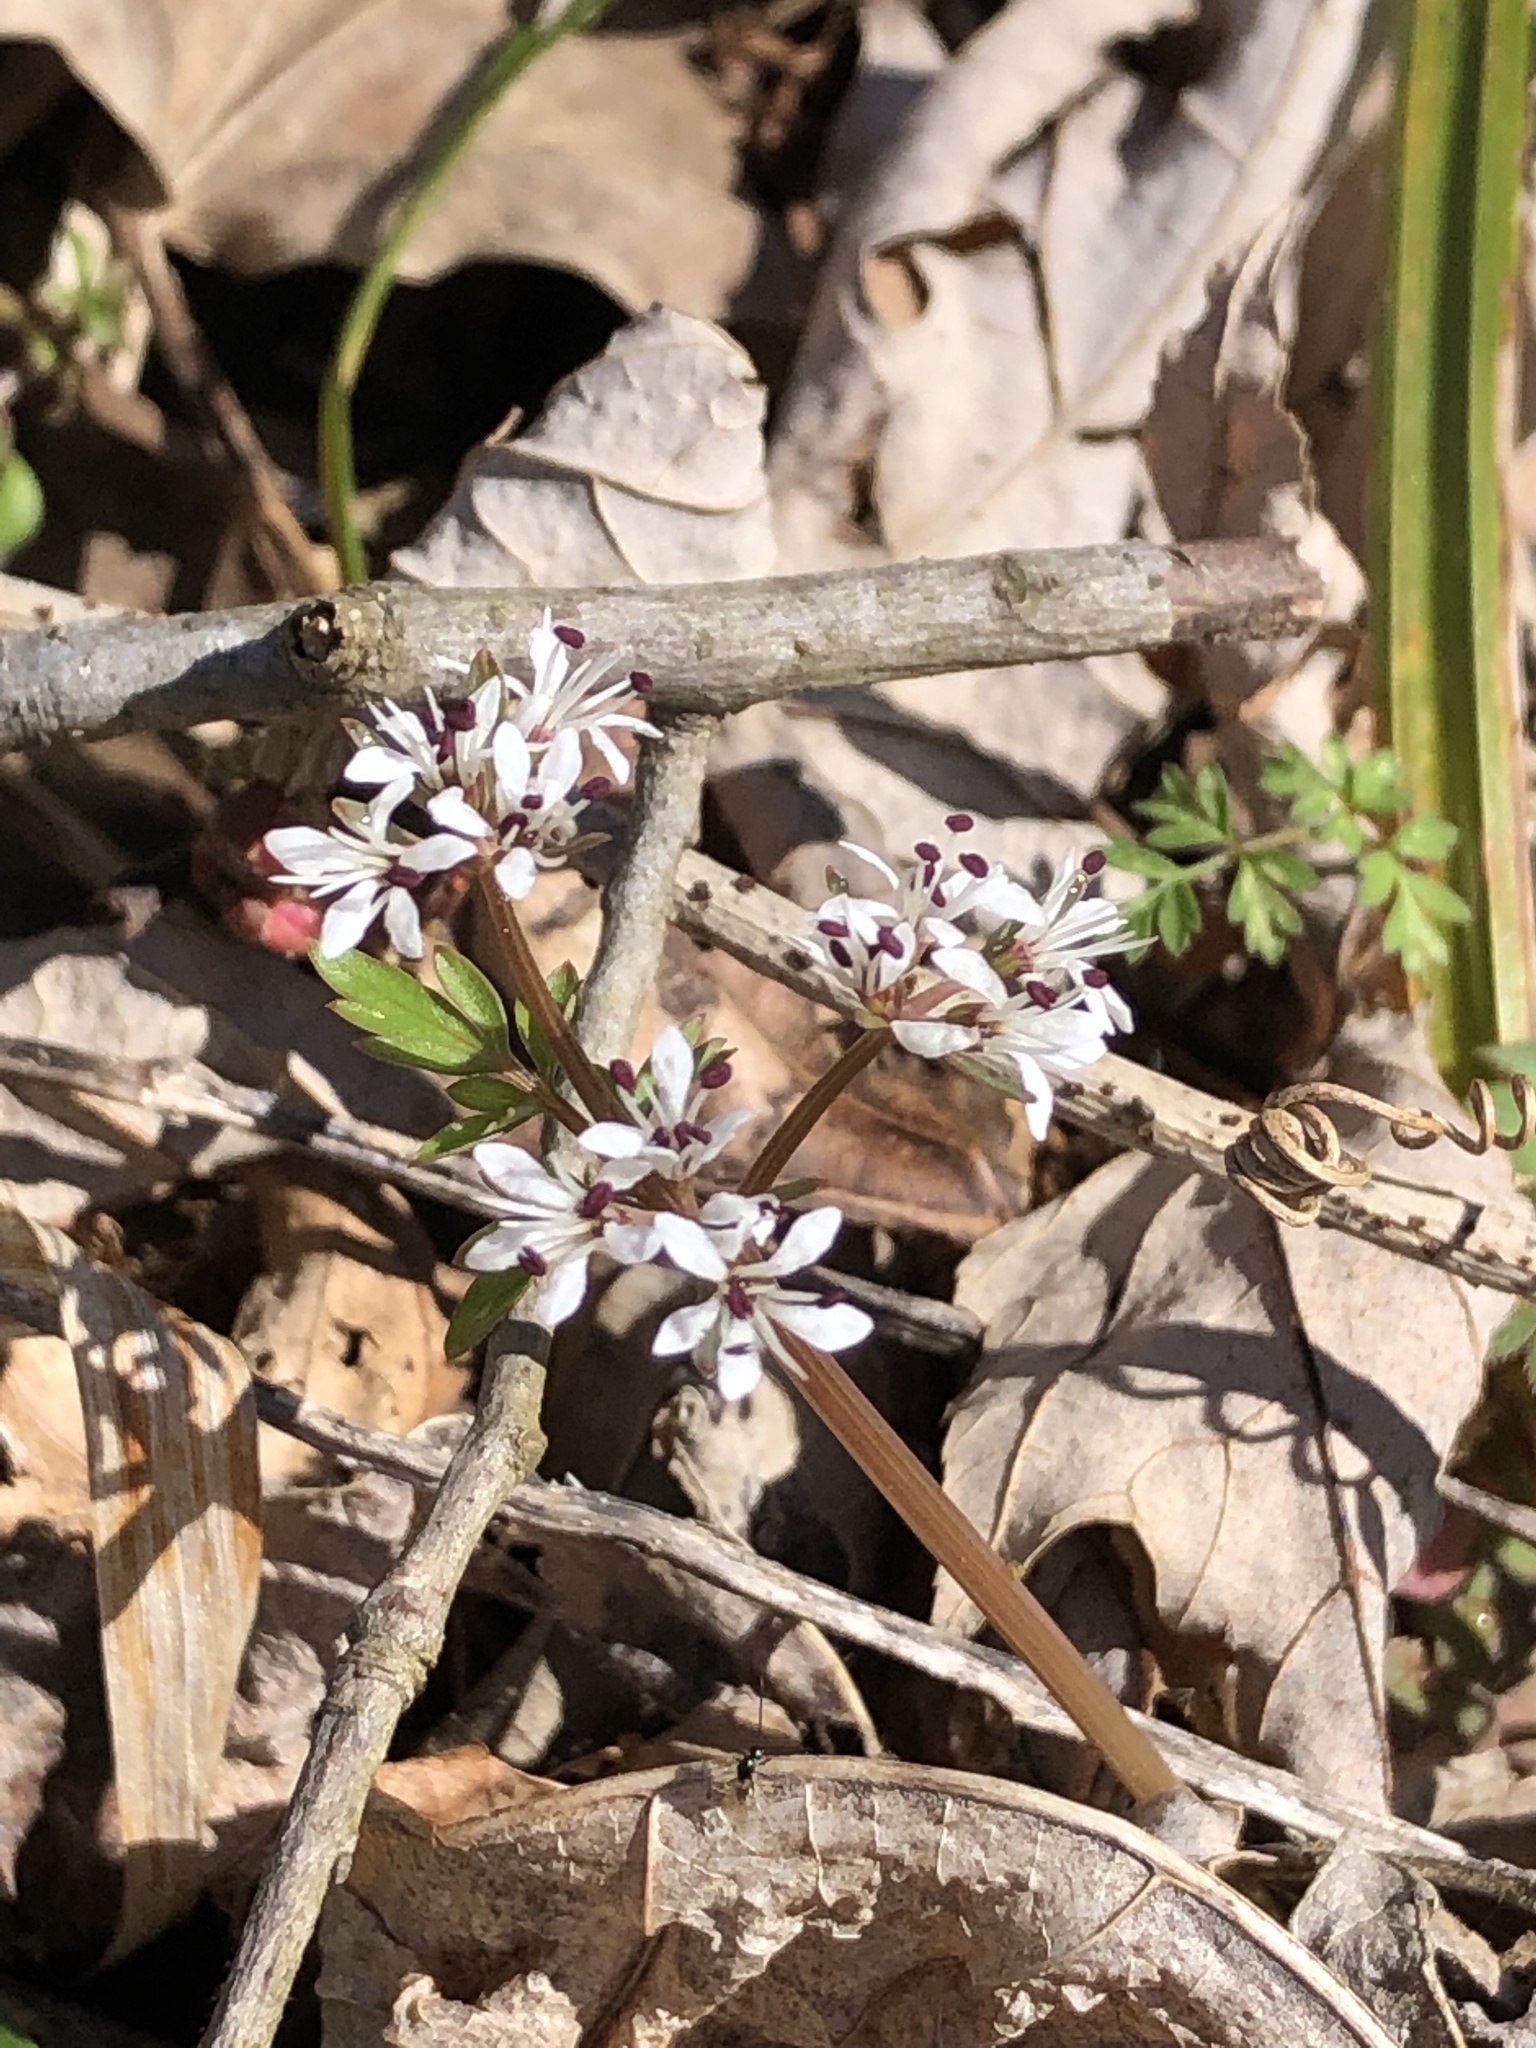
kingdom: Plantae
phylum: Tracheophyta
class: Magnoliopsida
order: Apiales
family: Apiaceae
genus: Erigenia
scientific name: Erigenia bulbosa
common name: Pepper-and-salt
